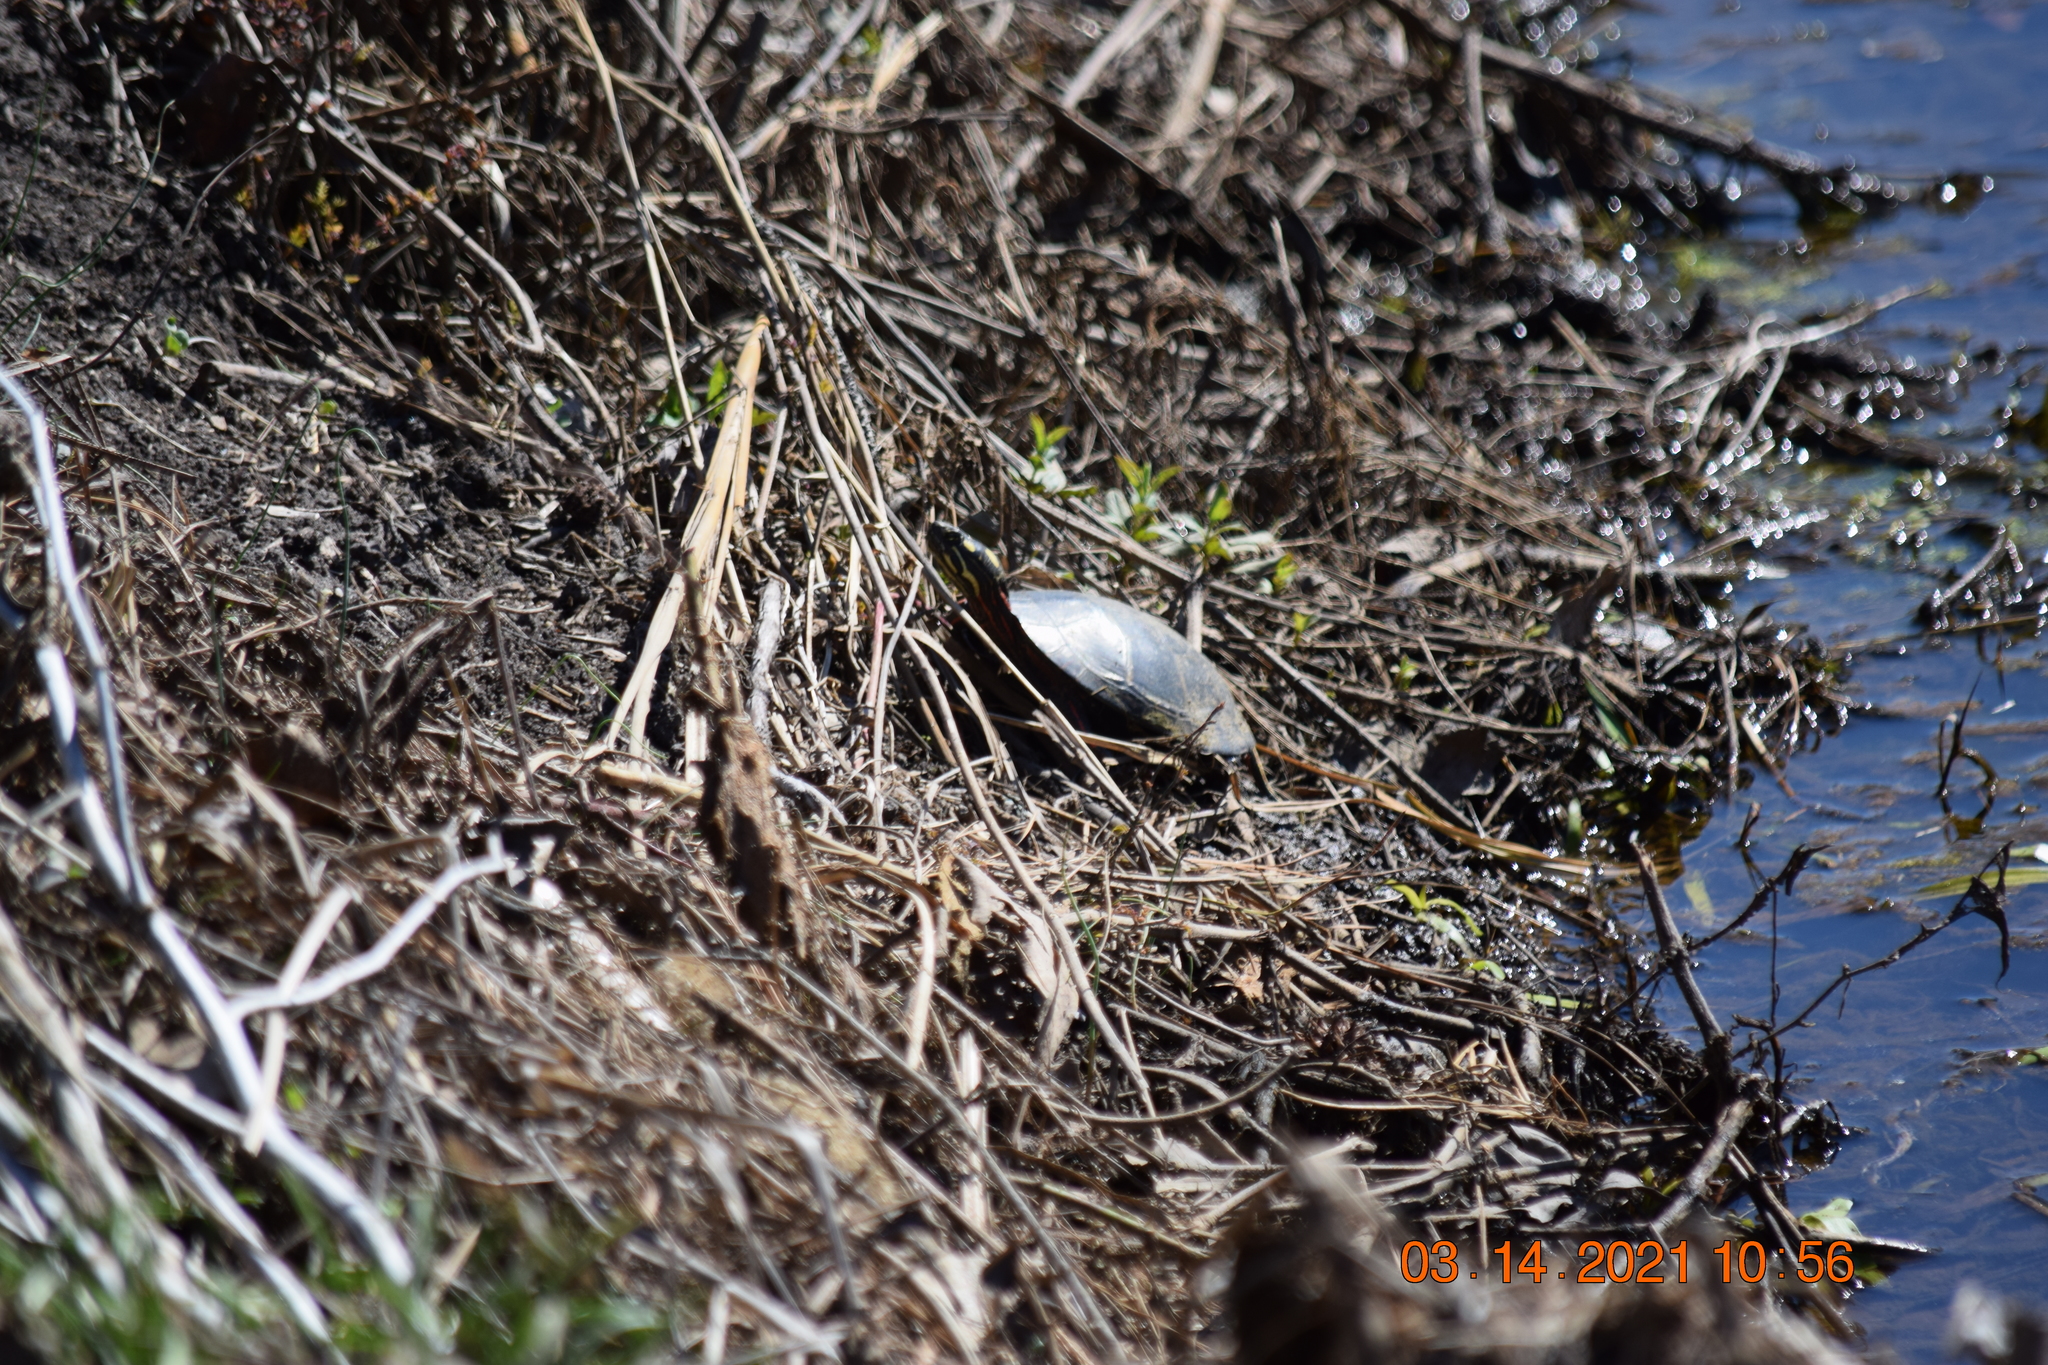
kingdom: Animalia
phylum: Chordata
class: Testudines
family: Emydidae
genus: Chrysemys
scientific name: Chrysemys picta
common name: Painted turtle
